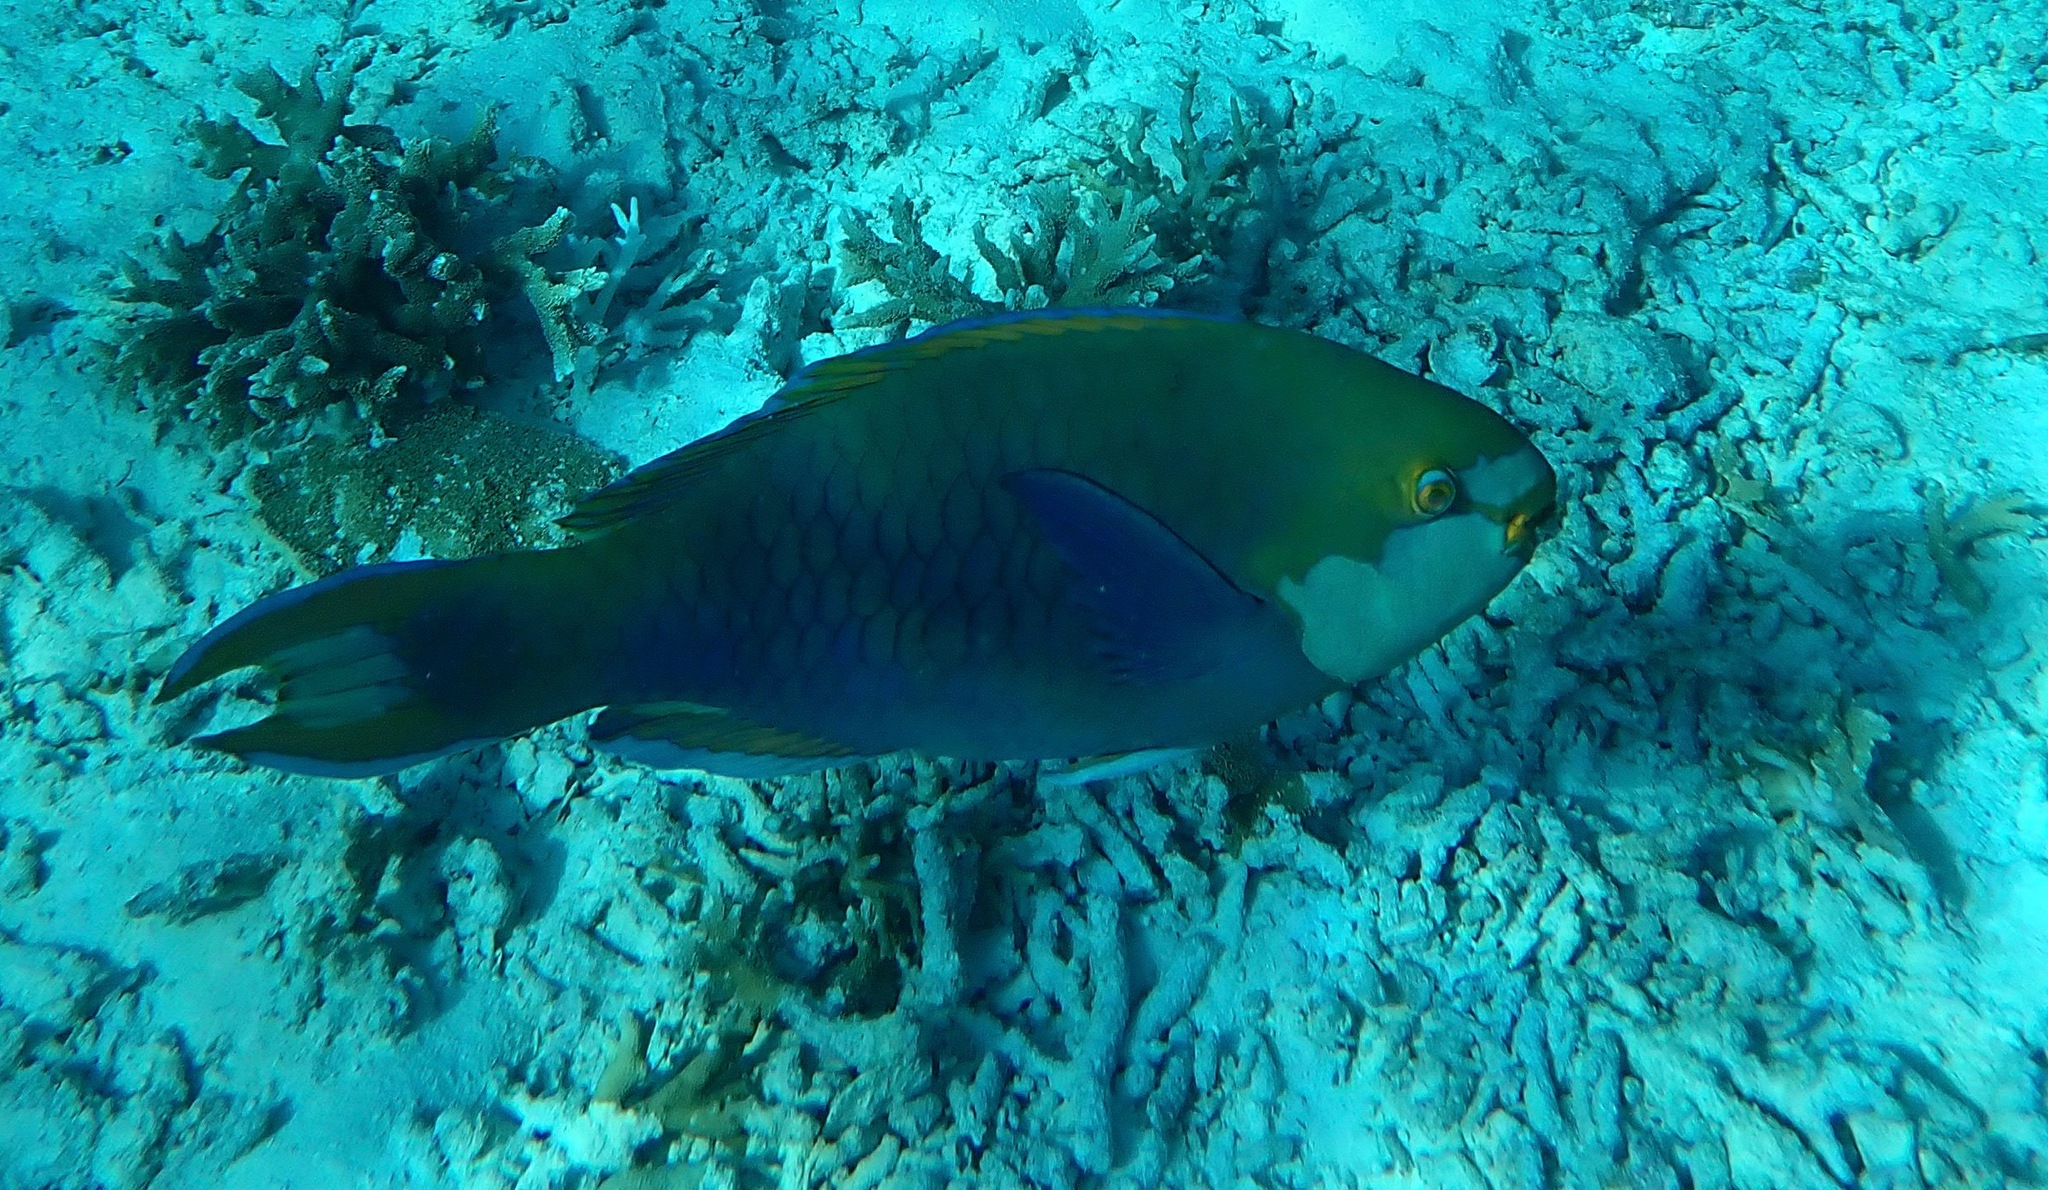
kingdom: Animalia
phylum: Chordata
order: Perciformes
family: Scaridae
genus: Scarus
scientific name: Scarus prasiognathos
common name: Singapore parrotfish
